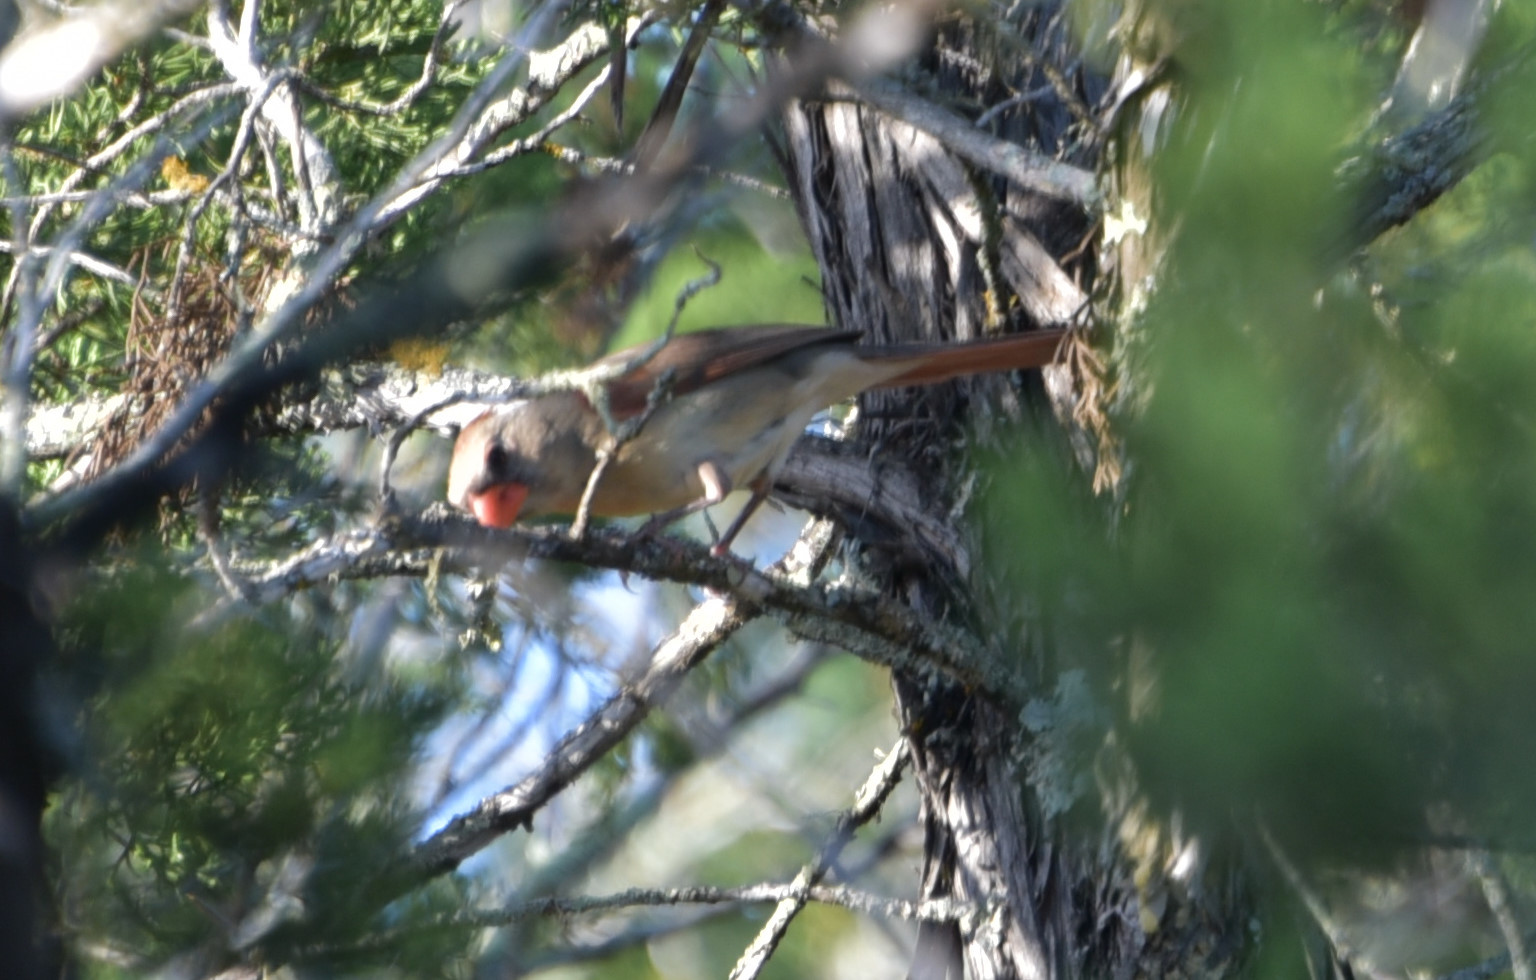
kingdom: Animalia
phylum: Chordata
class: Aves
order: Passeriformes
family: Cardinalidae
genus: Cardinalis
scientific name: Cardinalis cardinalis
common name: Northern cardinal
